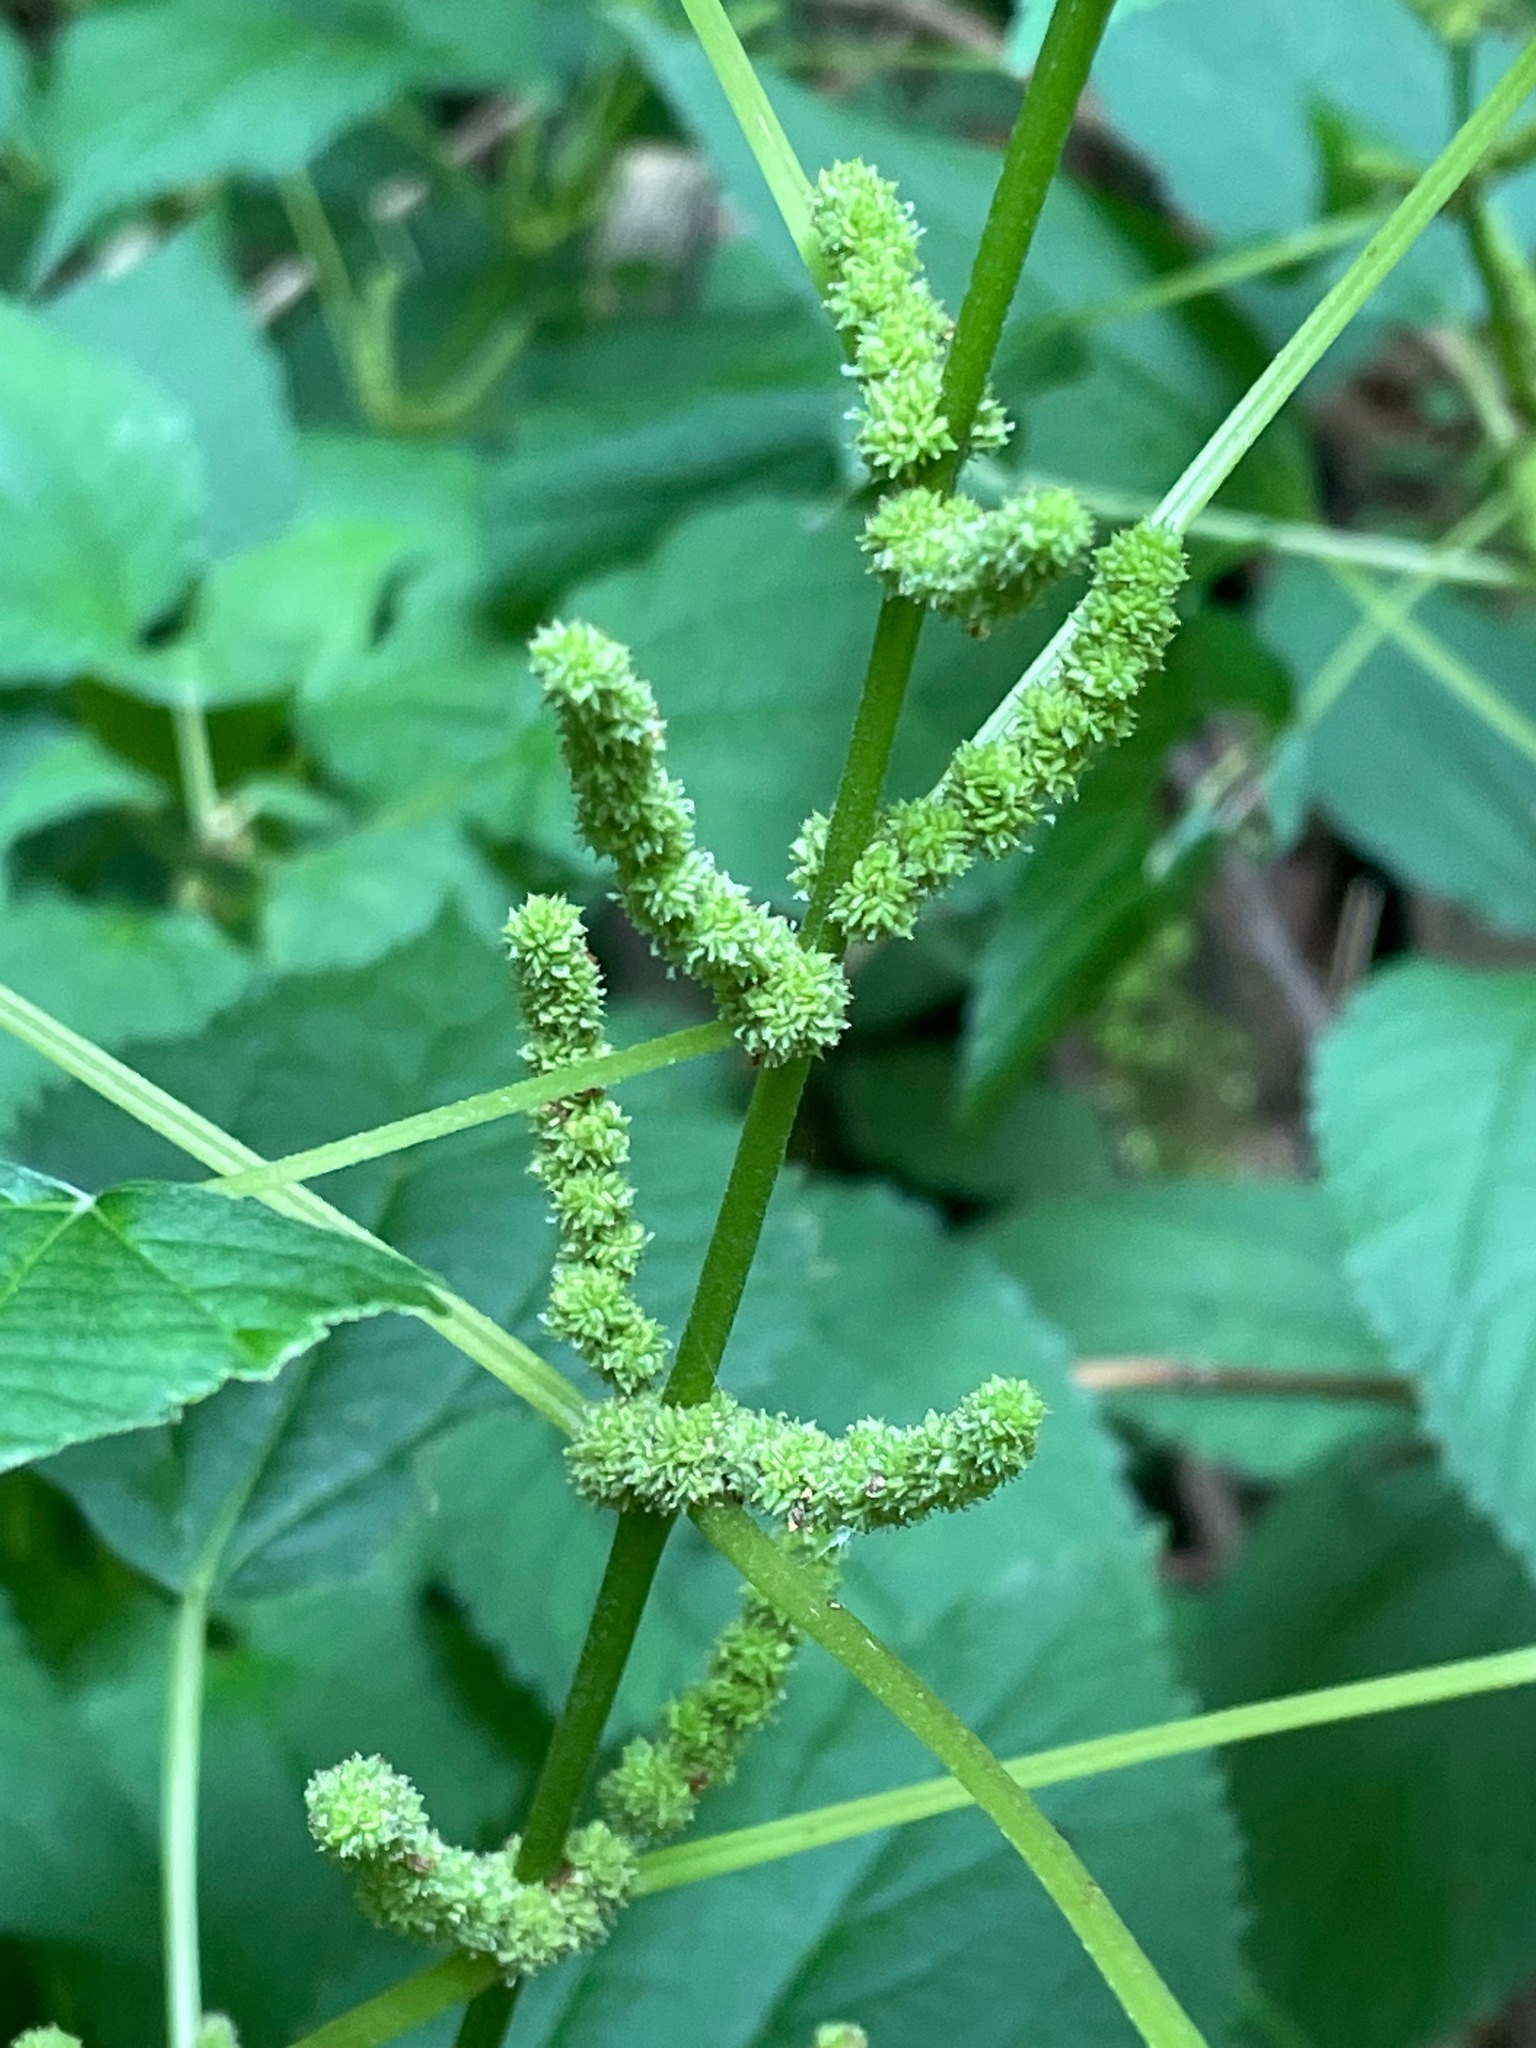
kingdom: Plantae
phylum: Tracheophyta
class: Magnoliopsida
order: Rosales
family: Urticaceae
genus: Boehmeria
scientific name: Boehmeria cylindrica
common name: Bog-hemp
